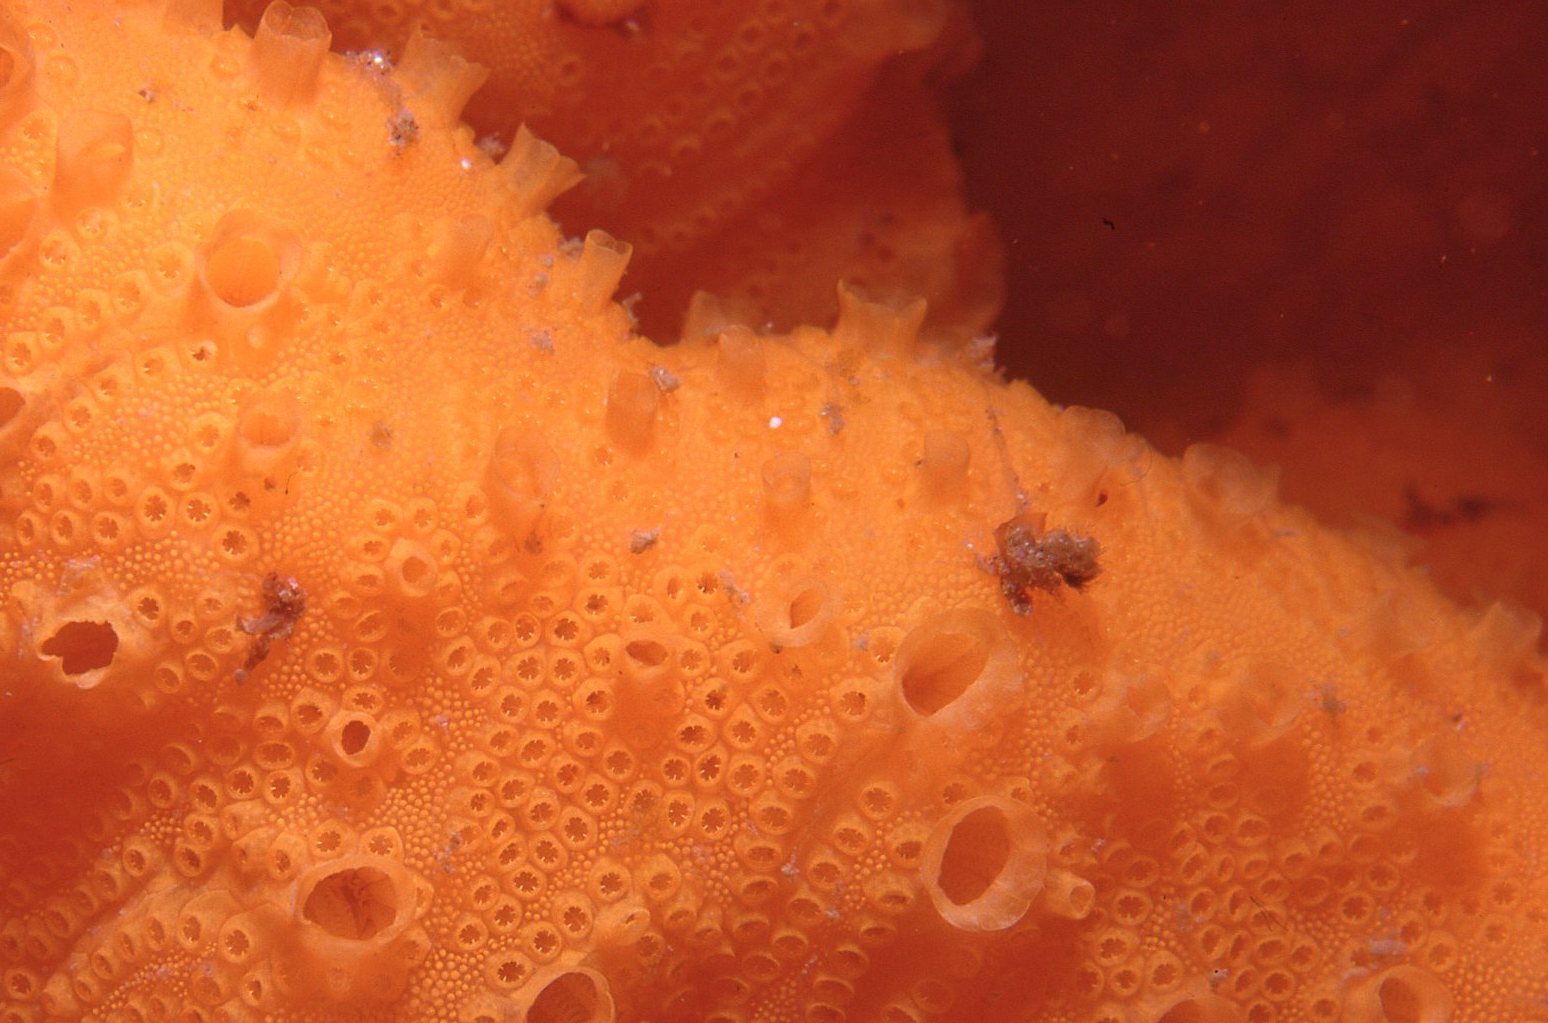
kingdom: Animalia
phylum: Chordata
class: Ascidiacea
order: Stolidobranchia
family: Styelidae
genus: Botrylloides
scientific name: Botrylloides violaceus
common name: Colonial sea squirt
